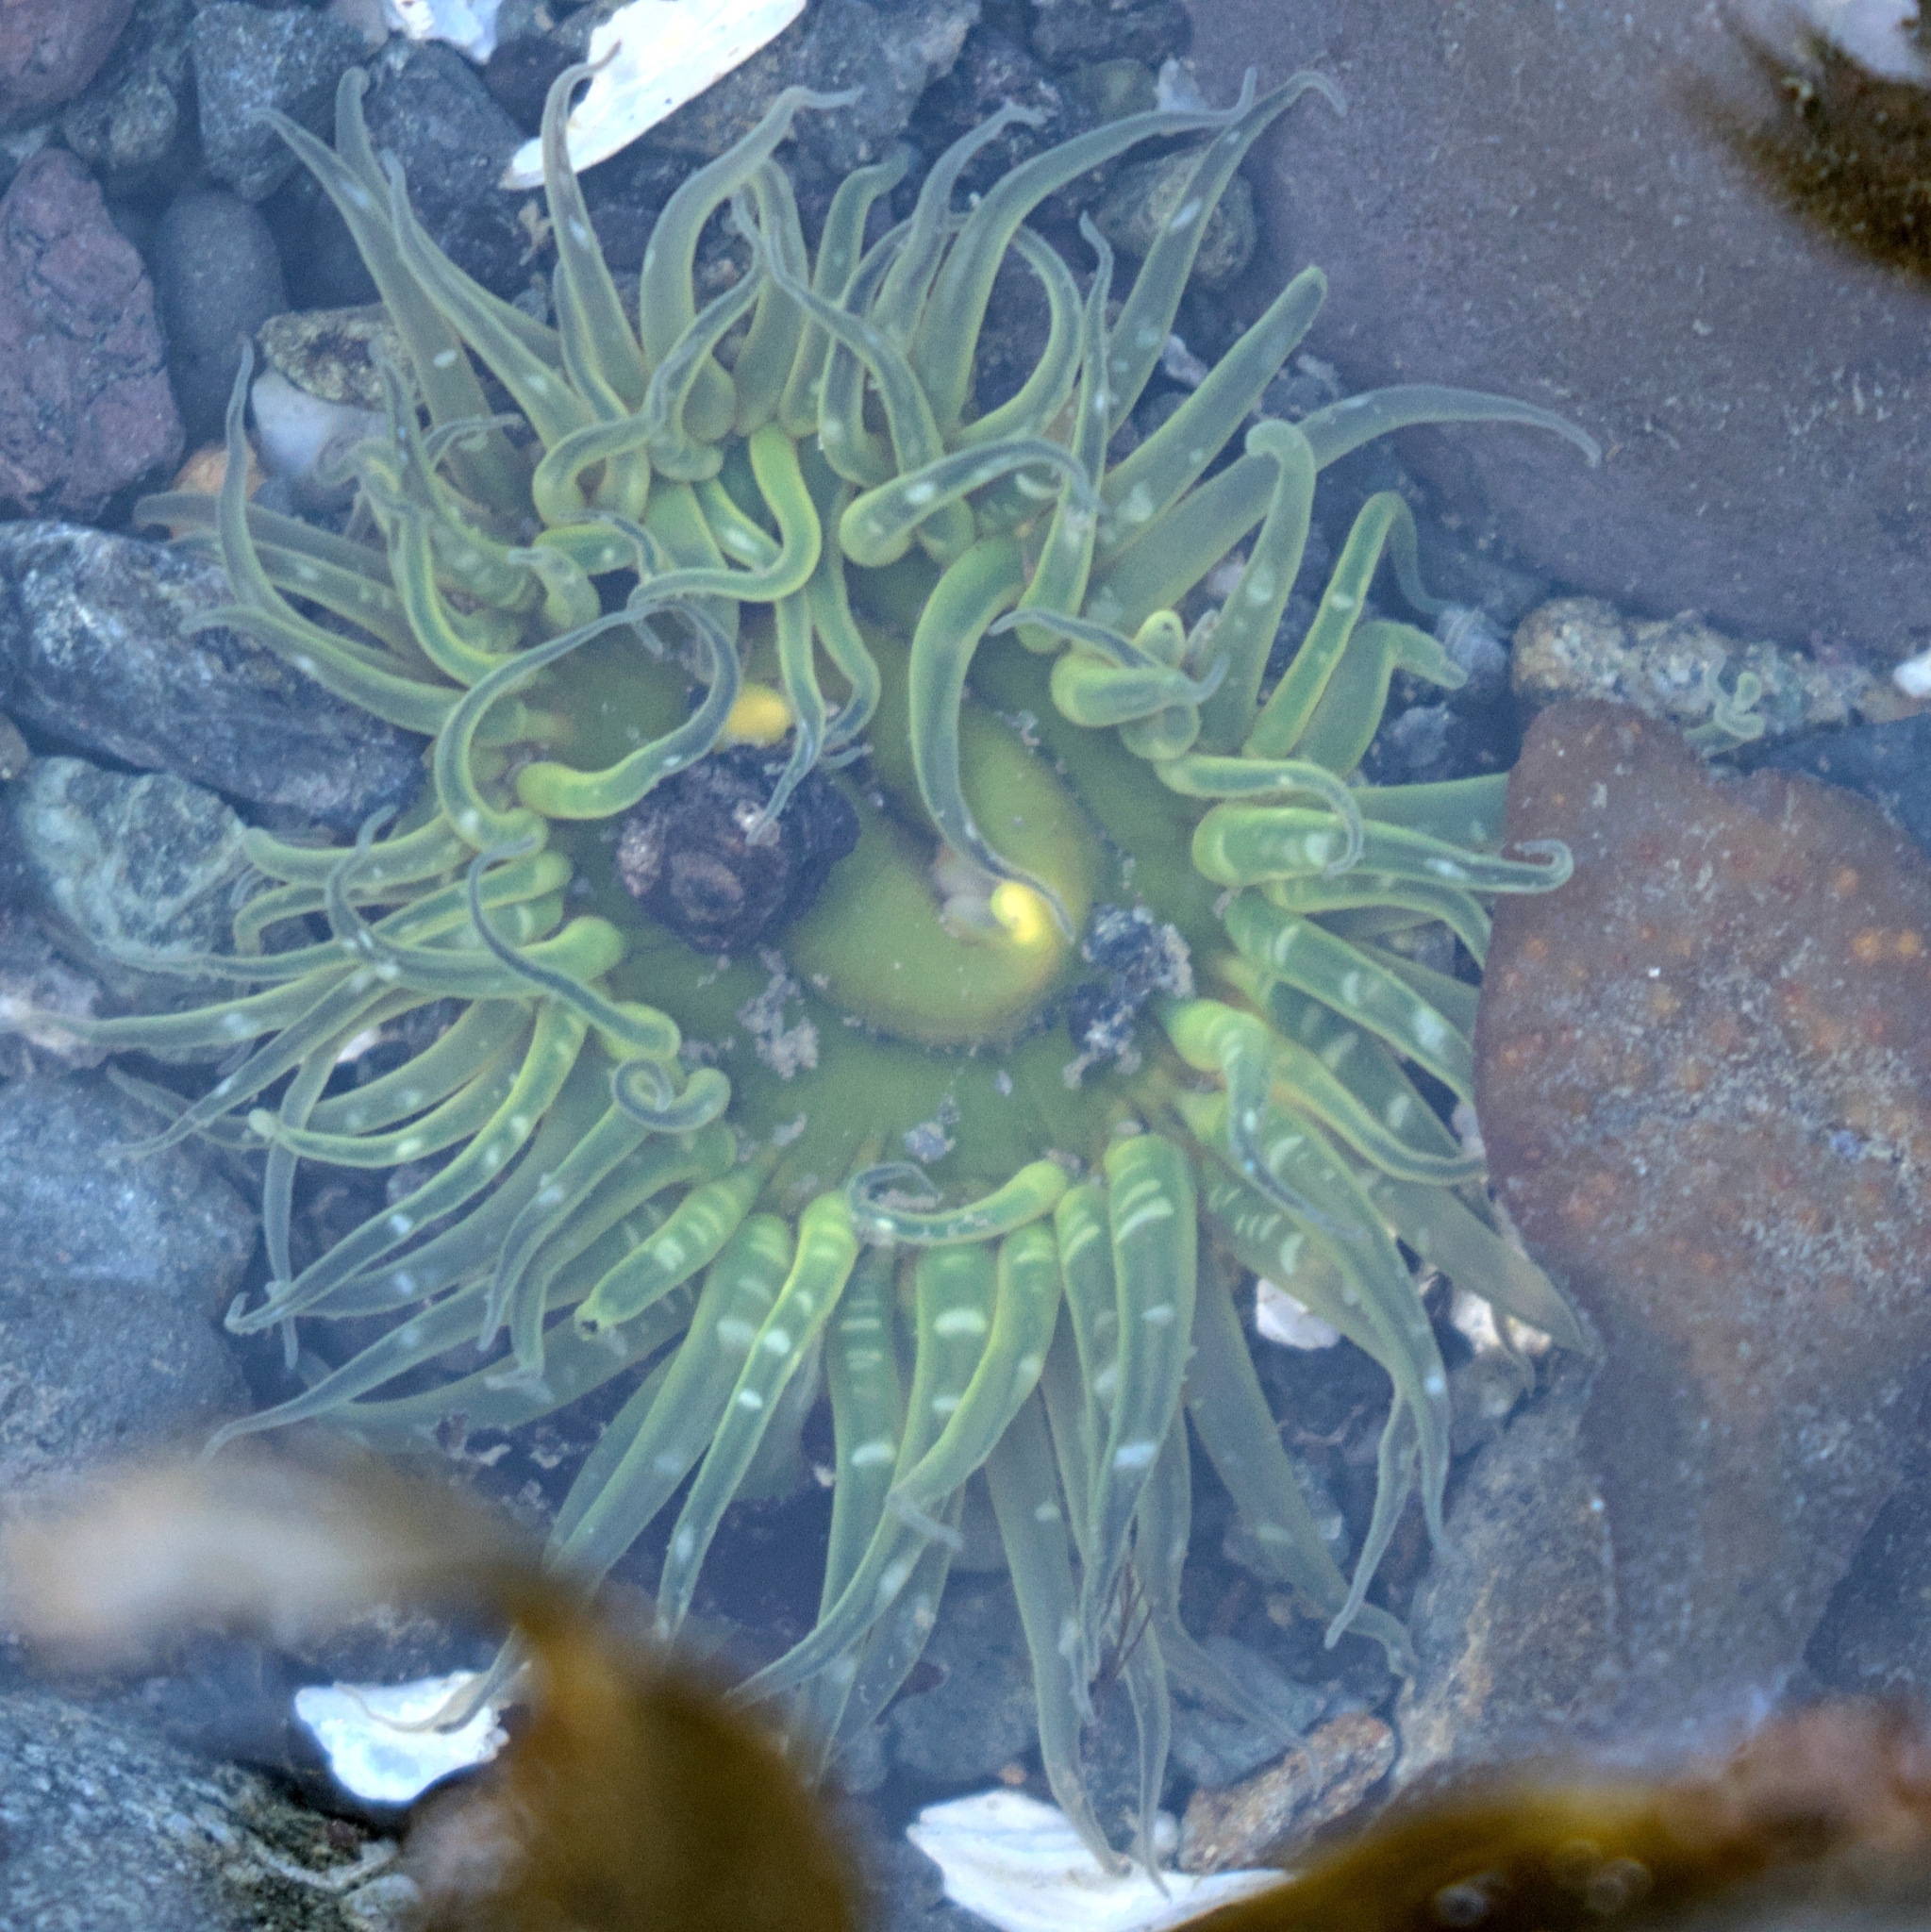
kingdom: Animalia
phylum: Cnidaria
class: Anthozoa
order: Actiniaria
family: Actiniidae
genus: Anthopleura
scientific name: Anthopleura artemisia
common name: Buried sea anemone
